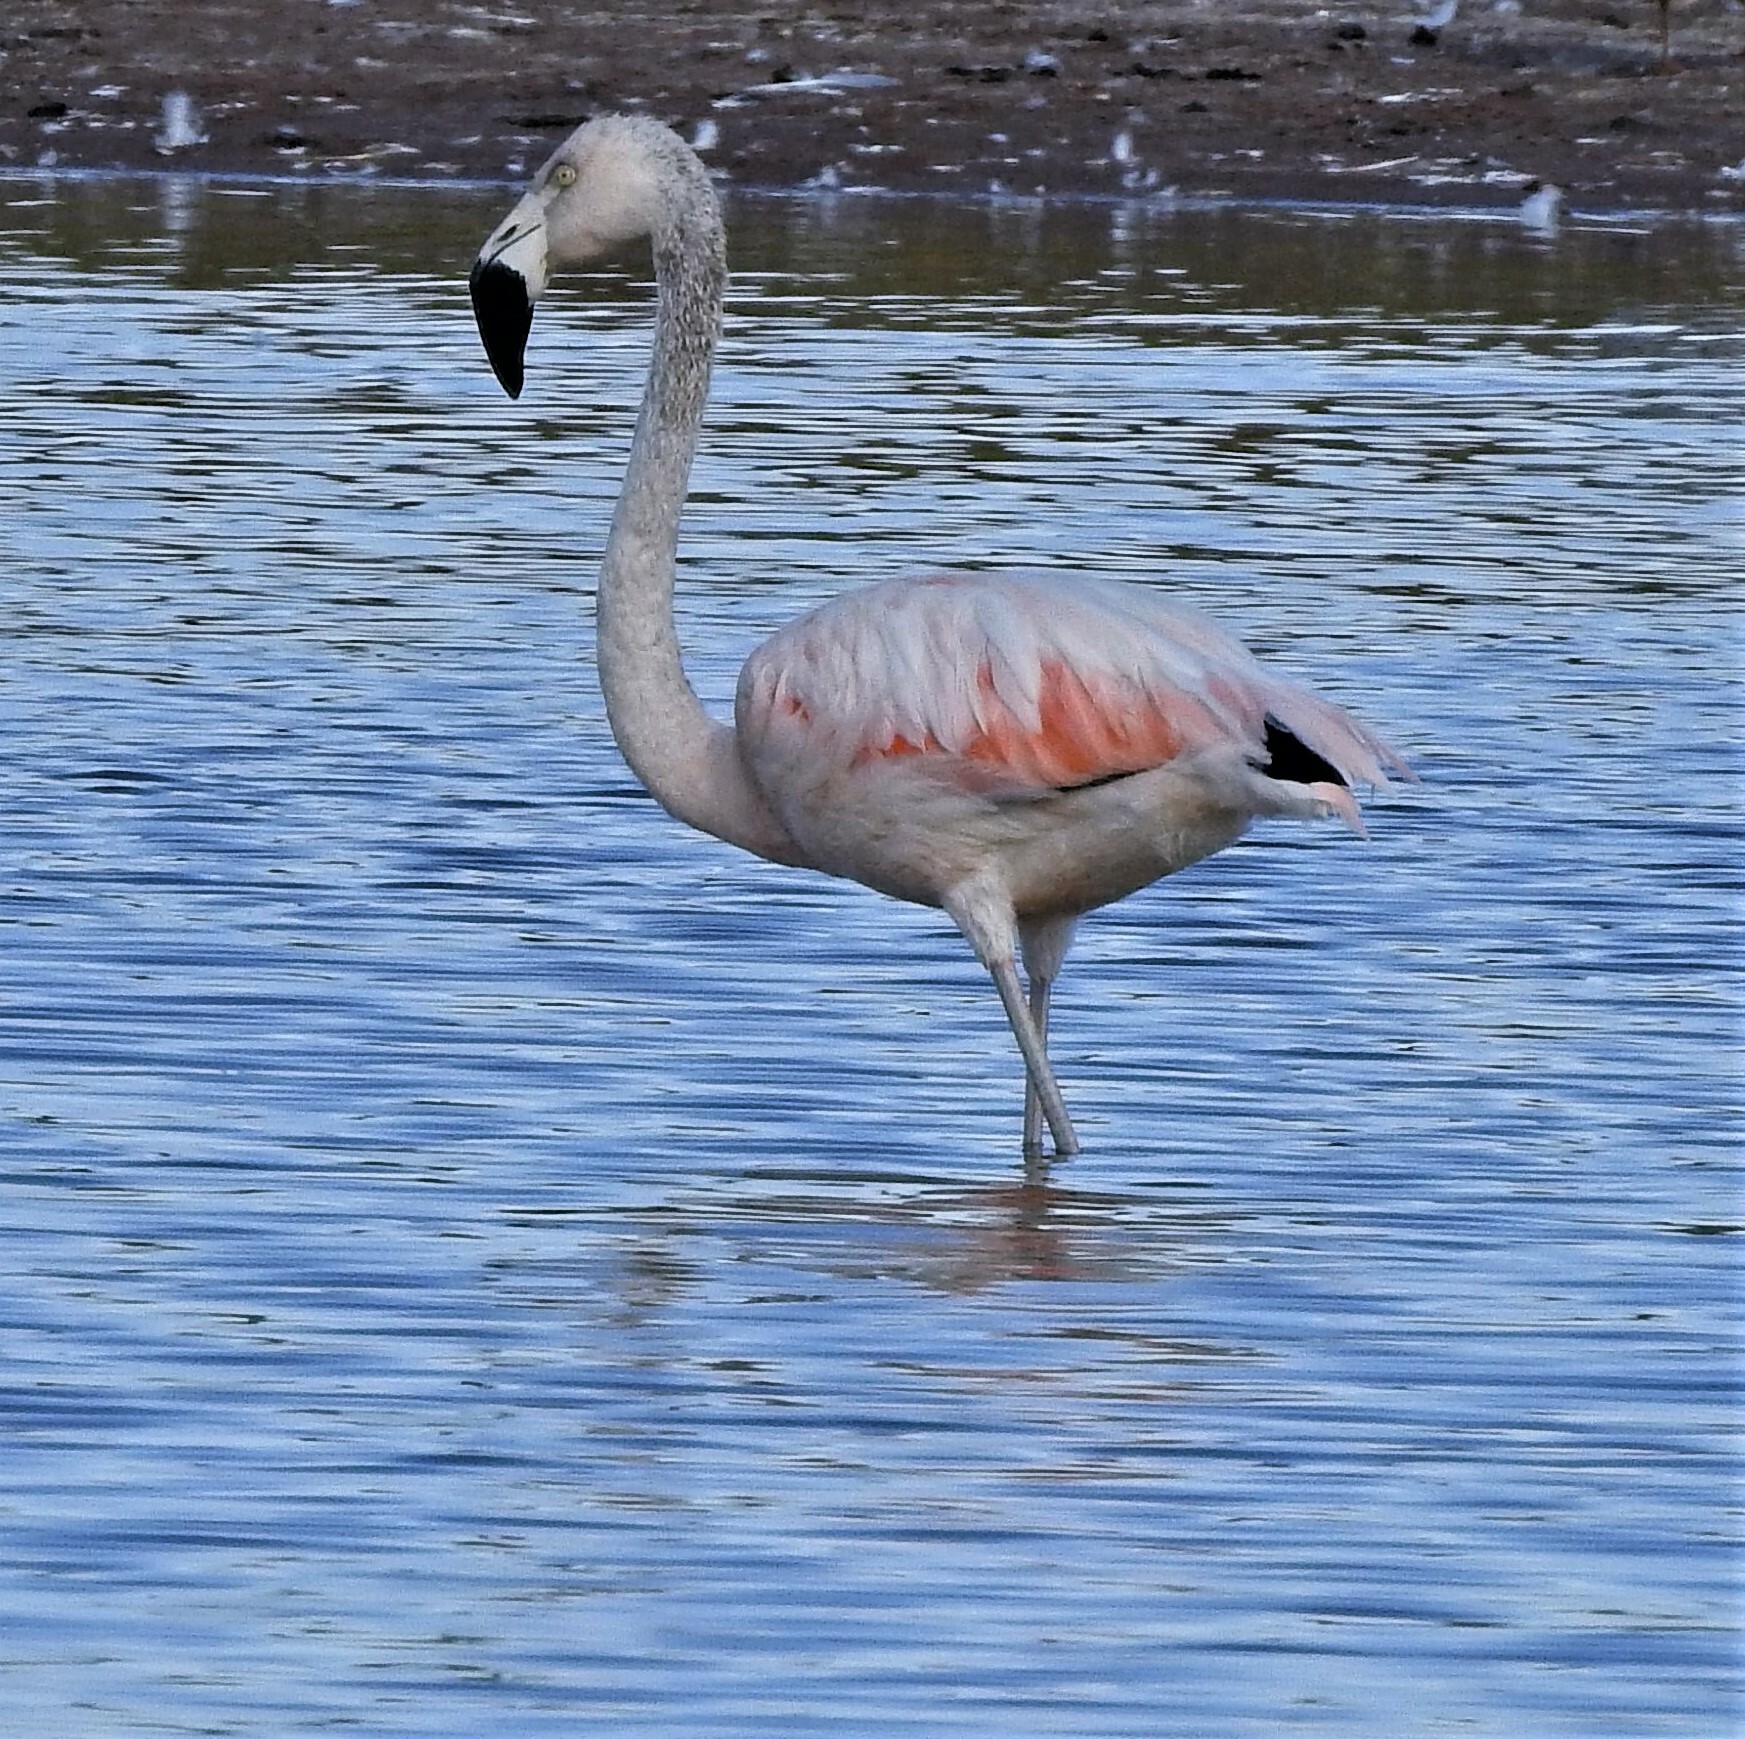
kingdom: Animalia
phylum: Chordata
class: Aves
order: Phoenicopteriformes
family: Phoenicopteridae
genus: Phoenicopterus
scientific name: Phoenicopterus chilensis
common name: Chilean flamingo
